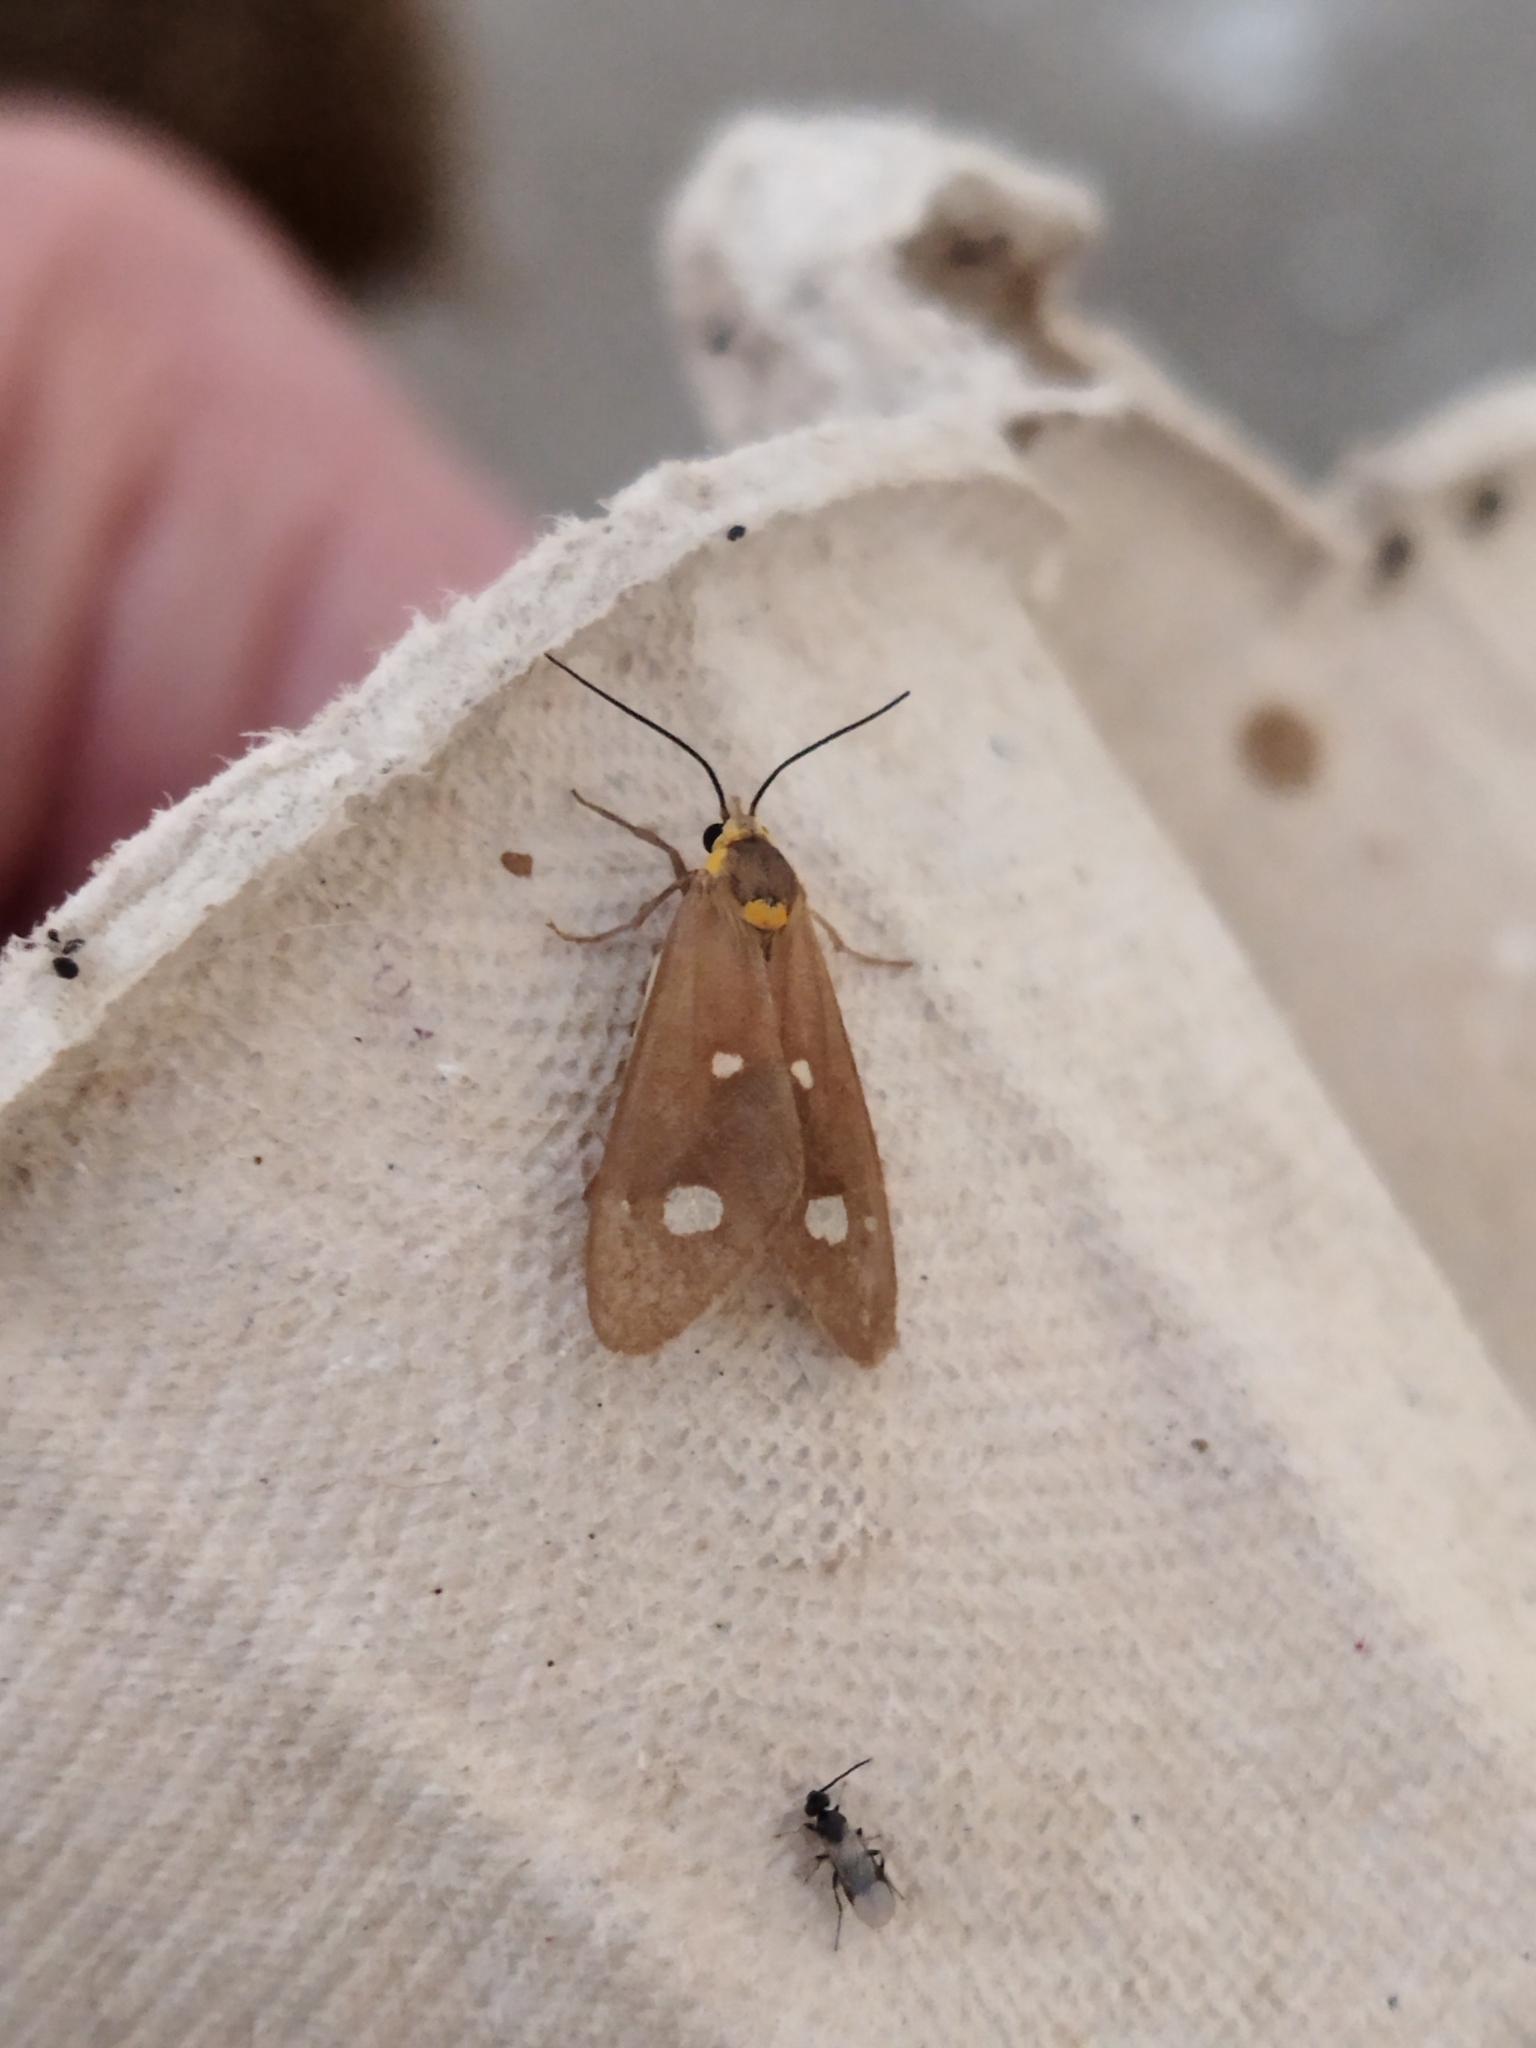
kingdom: Animalia
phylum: Arthropoda
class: Insecta
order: Lepidoptera
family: Erebidae
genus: Dysauxes
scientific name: Dysauxes punctata
